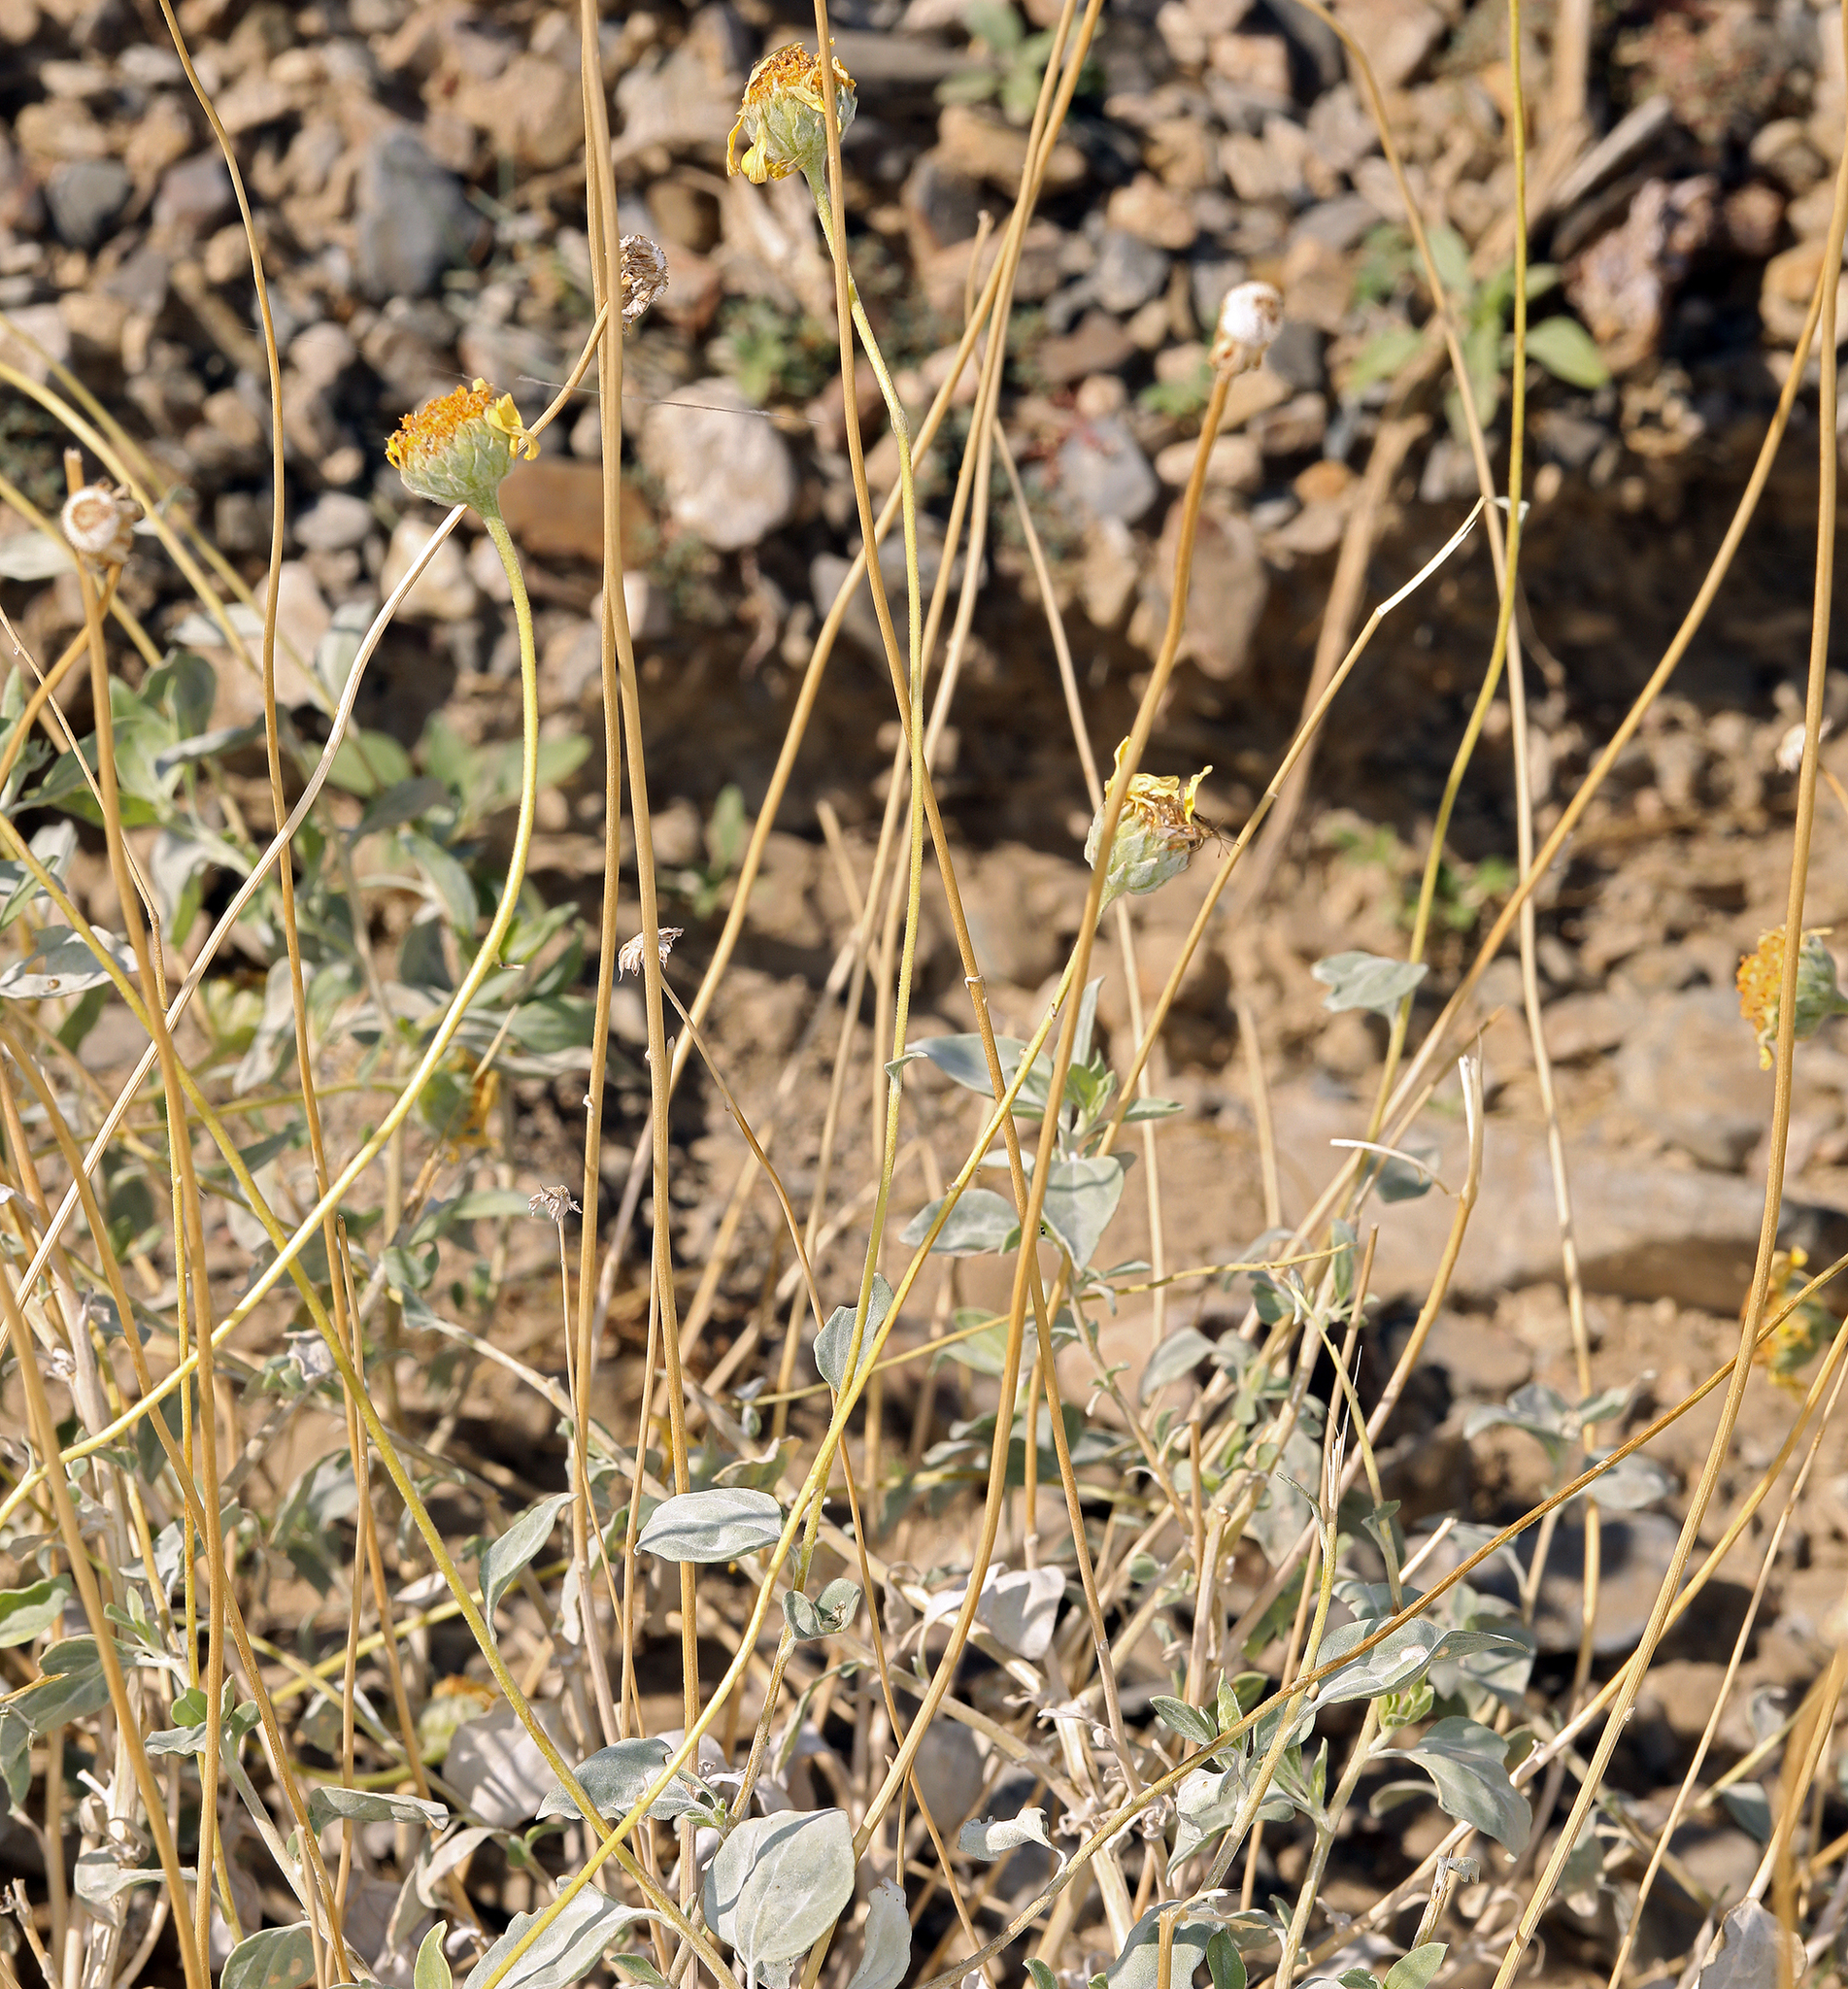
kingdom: Plantae
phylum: Tracheophyta
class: Magnoliopsida
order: Asterales
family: Asteraceae
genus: Encelia
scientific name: Encelia actoni
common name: Acton encelia
